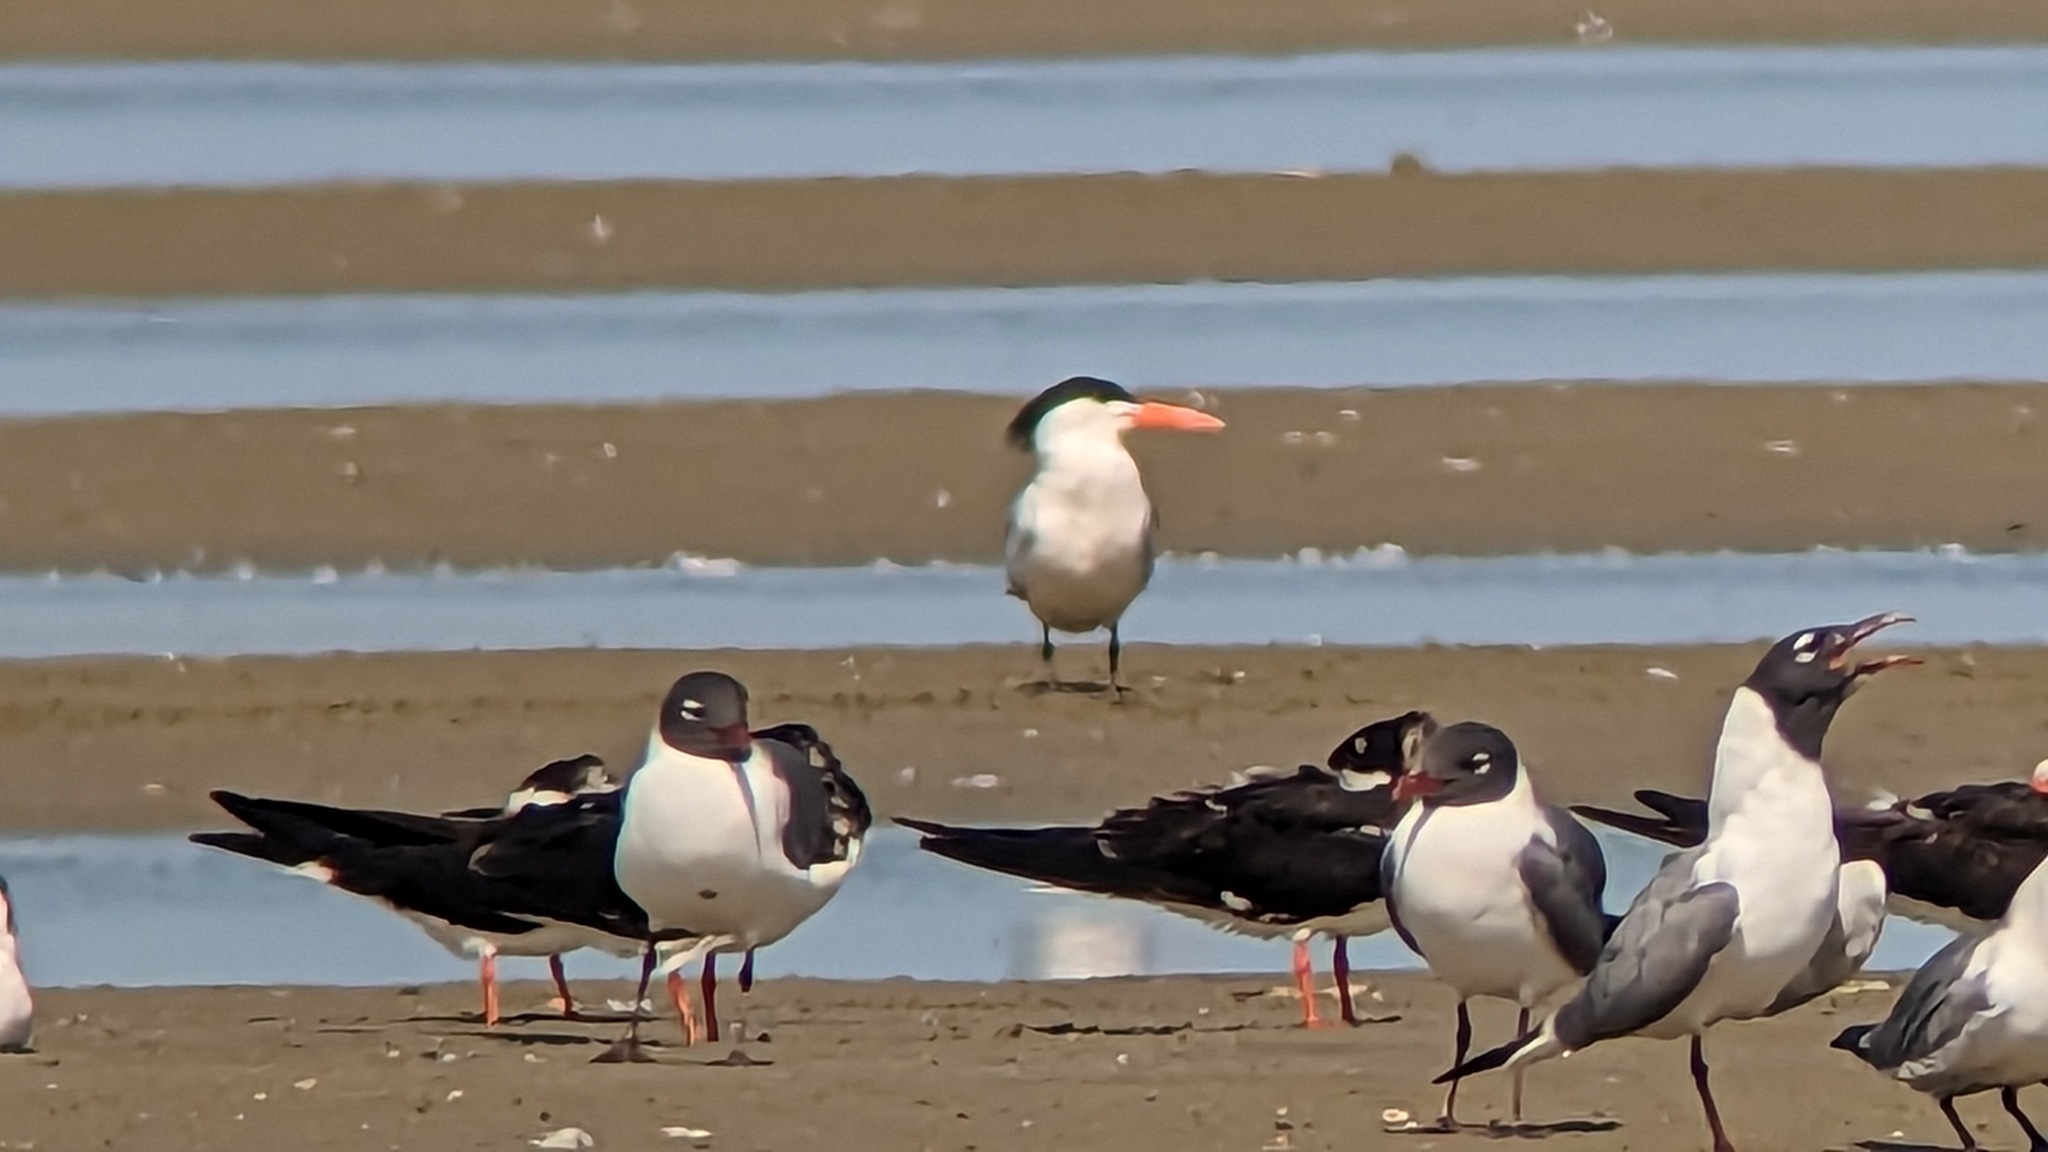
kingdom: Animalia
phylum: Chordata
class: Aves
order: Charadriiformes
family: Laridae
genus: Thalasseus
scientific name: Thalasseus maximus
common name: Royal tern
